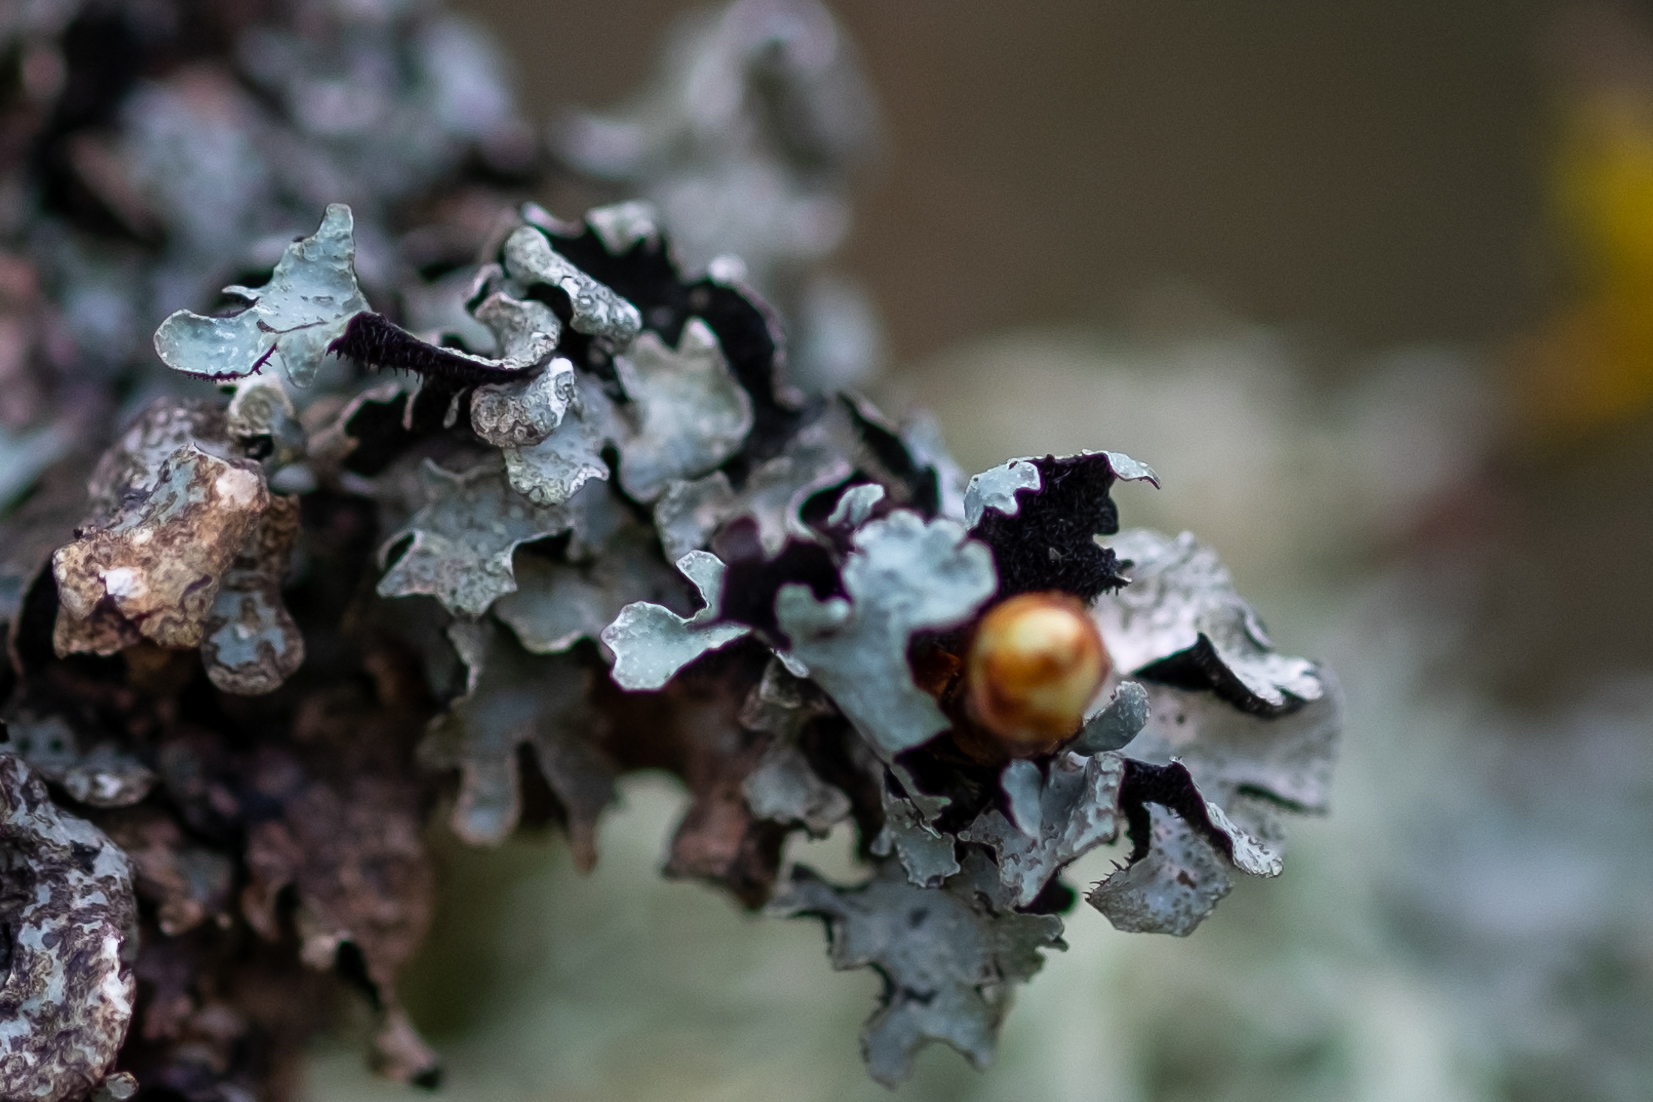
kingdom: Fungi
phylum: Ascomycota
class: Lecanoromycetes
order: Lecanorales
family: Parmeliaceae
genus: Parmelia
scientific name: Parmelia sulcata
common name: Netted shield lichen
